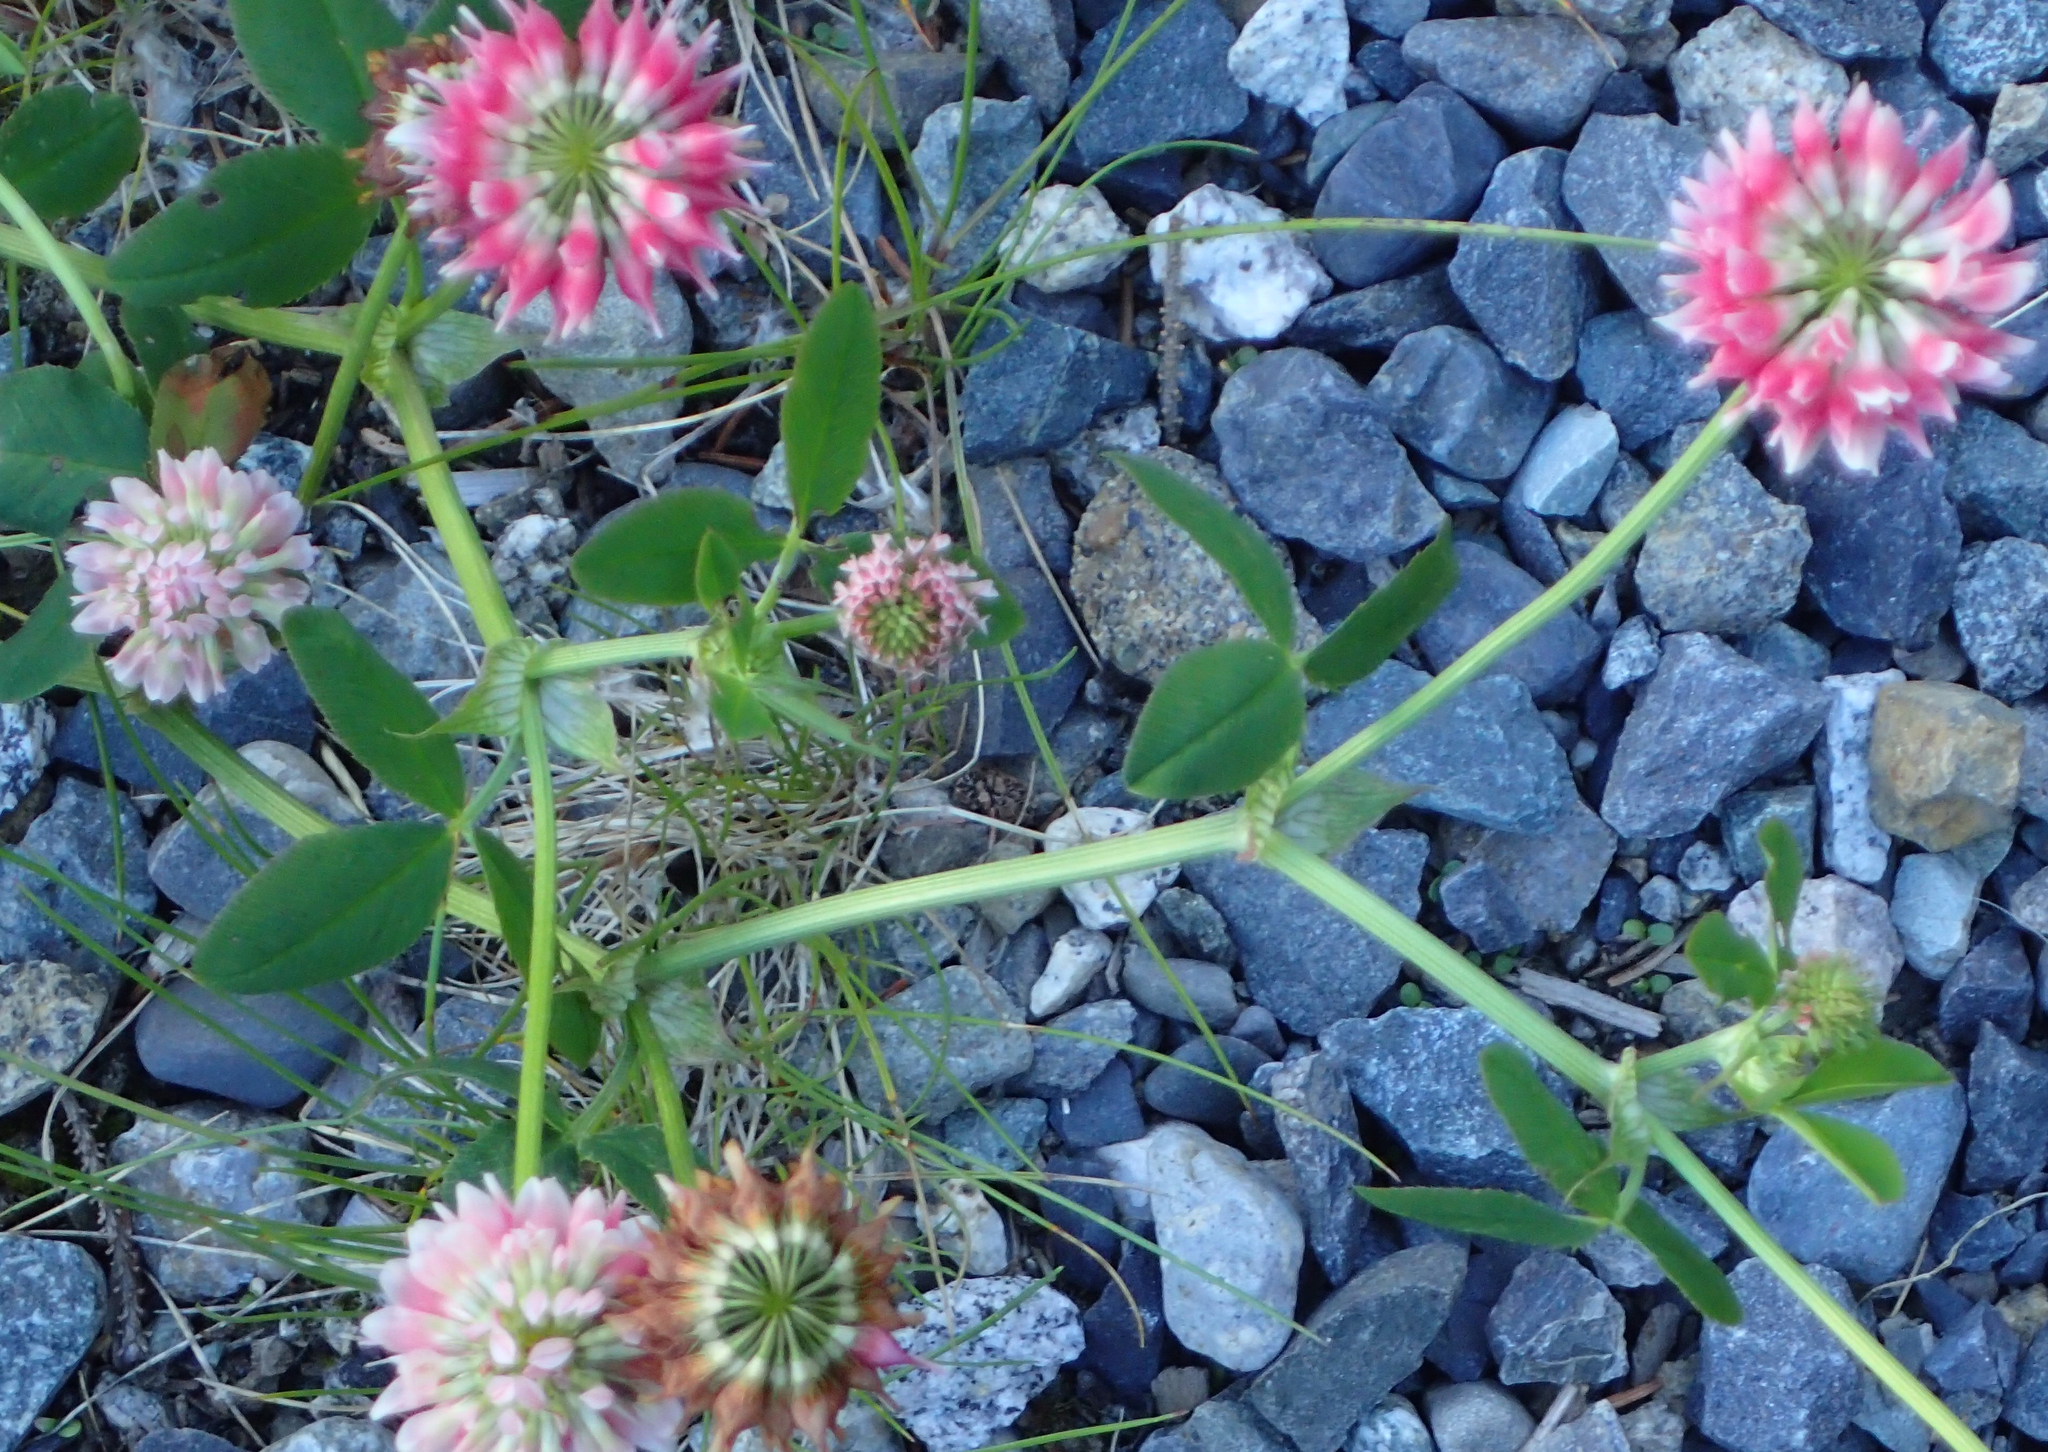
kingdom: Plantae
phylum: Tracheophyta
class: Magnoliopsida
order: Fabales
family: Fabaceae
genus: Trifolium
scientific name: Trifolium hybridum
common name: Alsike clover
